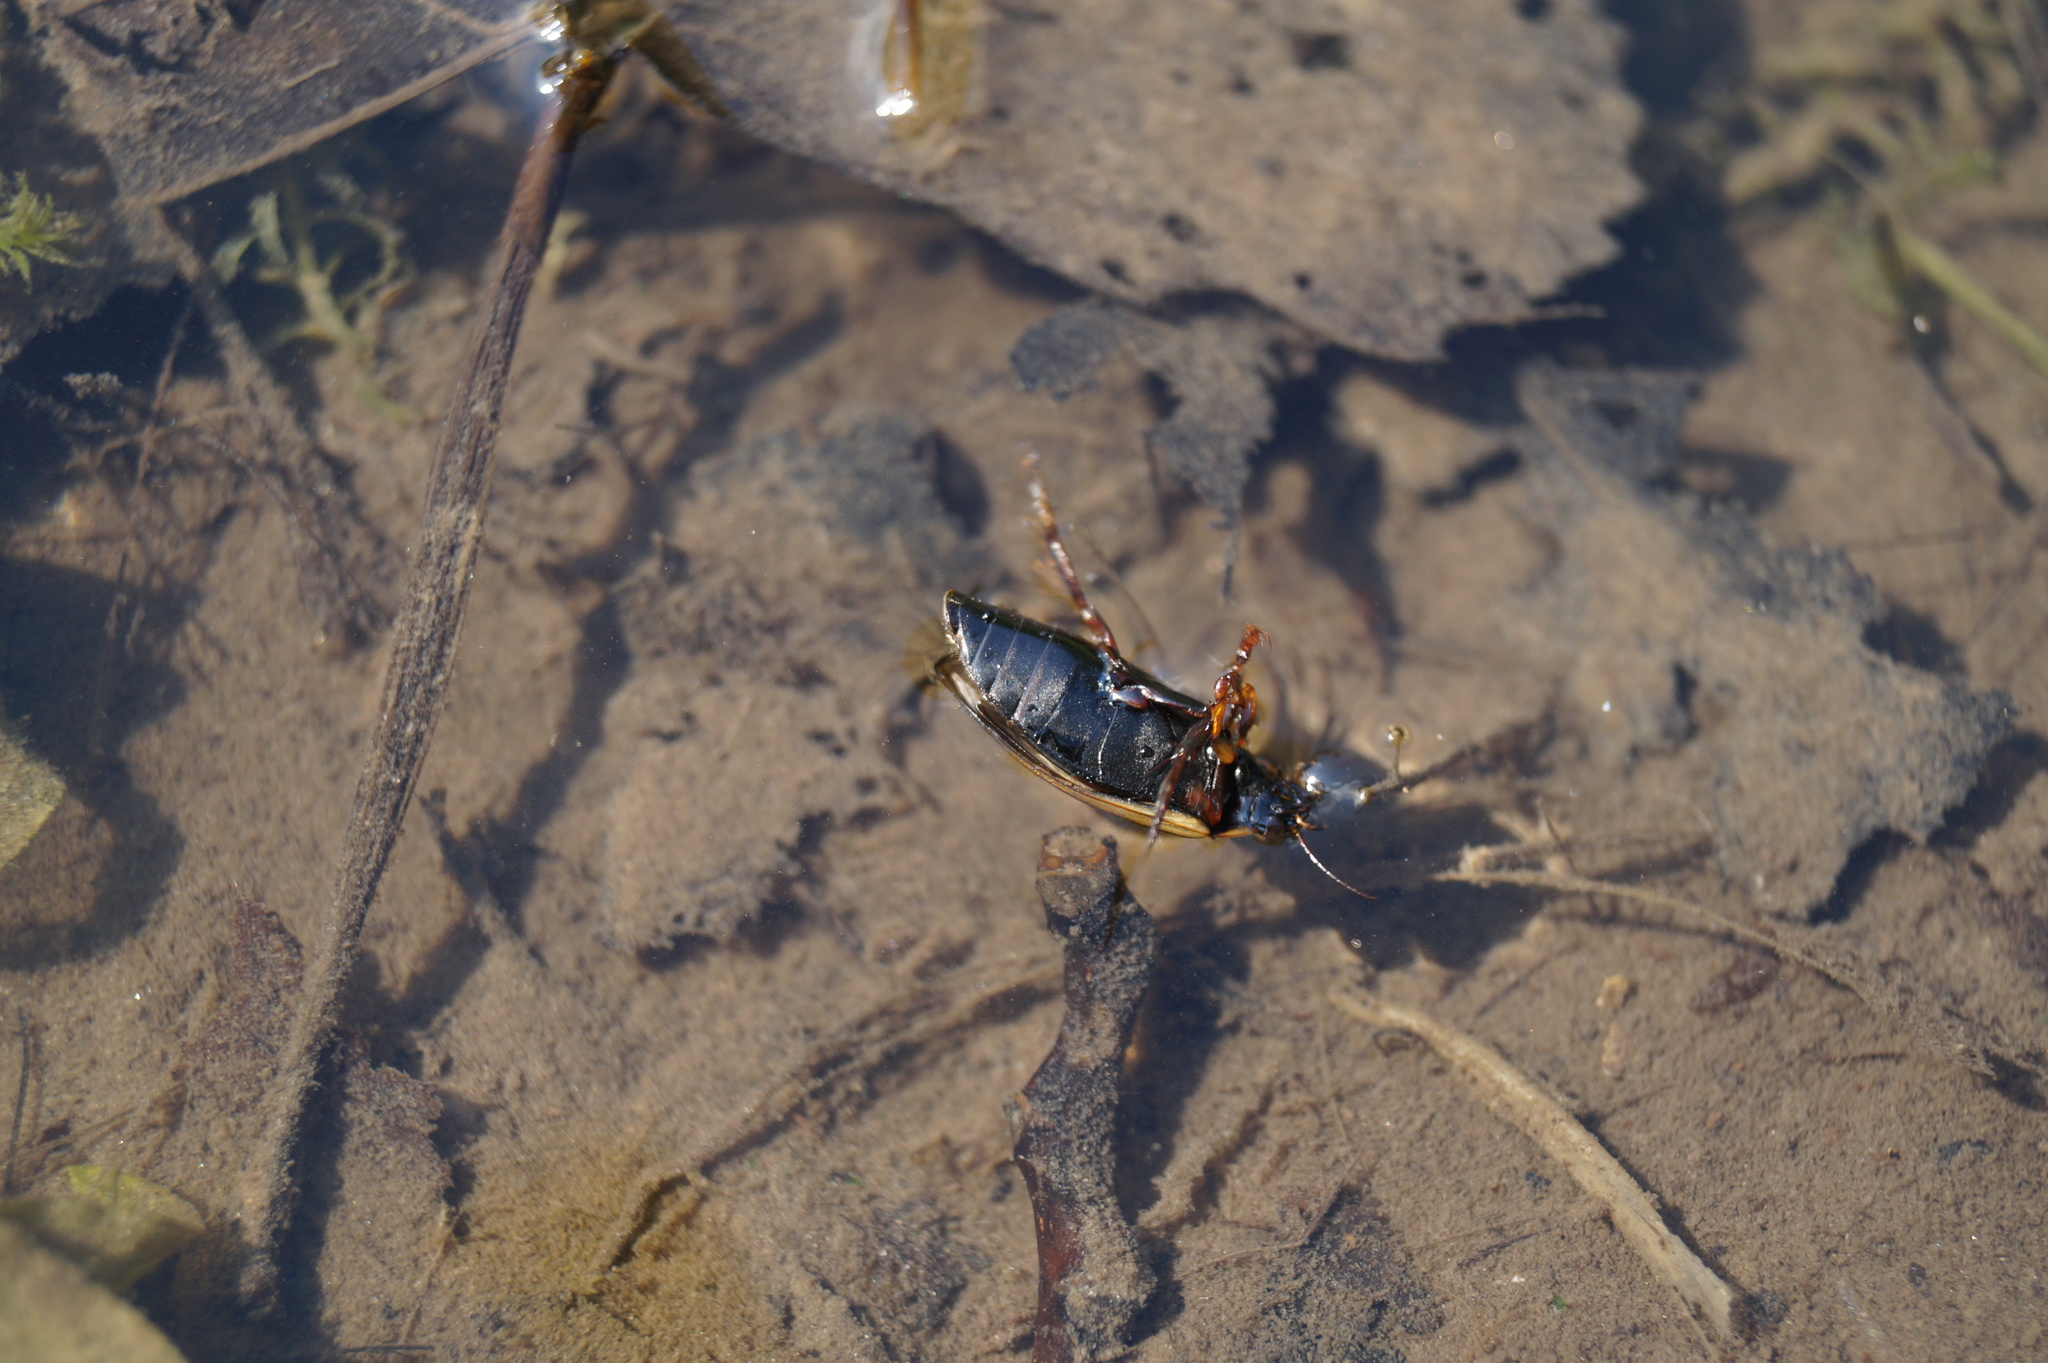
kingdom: Animalia
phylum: Arthropoda
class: Insecta
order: Coleoptera
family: Dytiscidae
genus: Colymbetes
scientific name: Colymbetes fuscus
